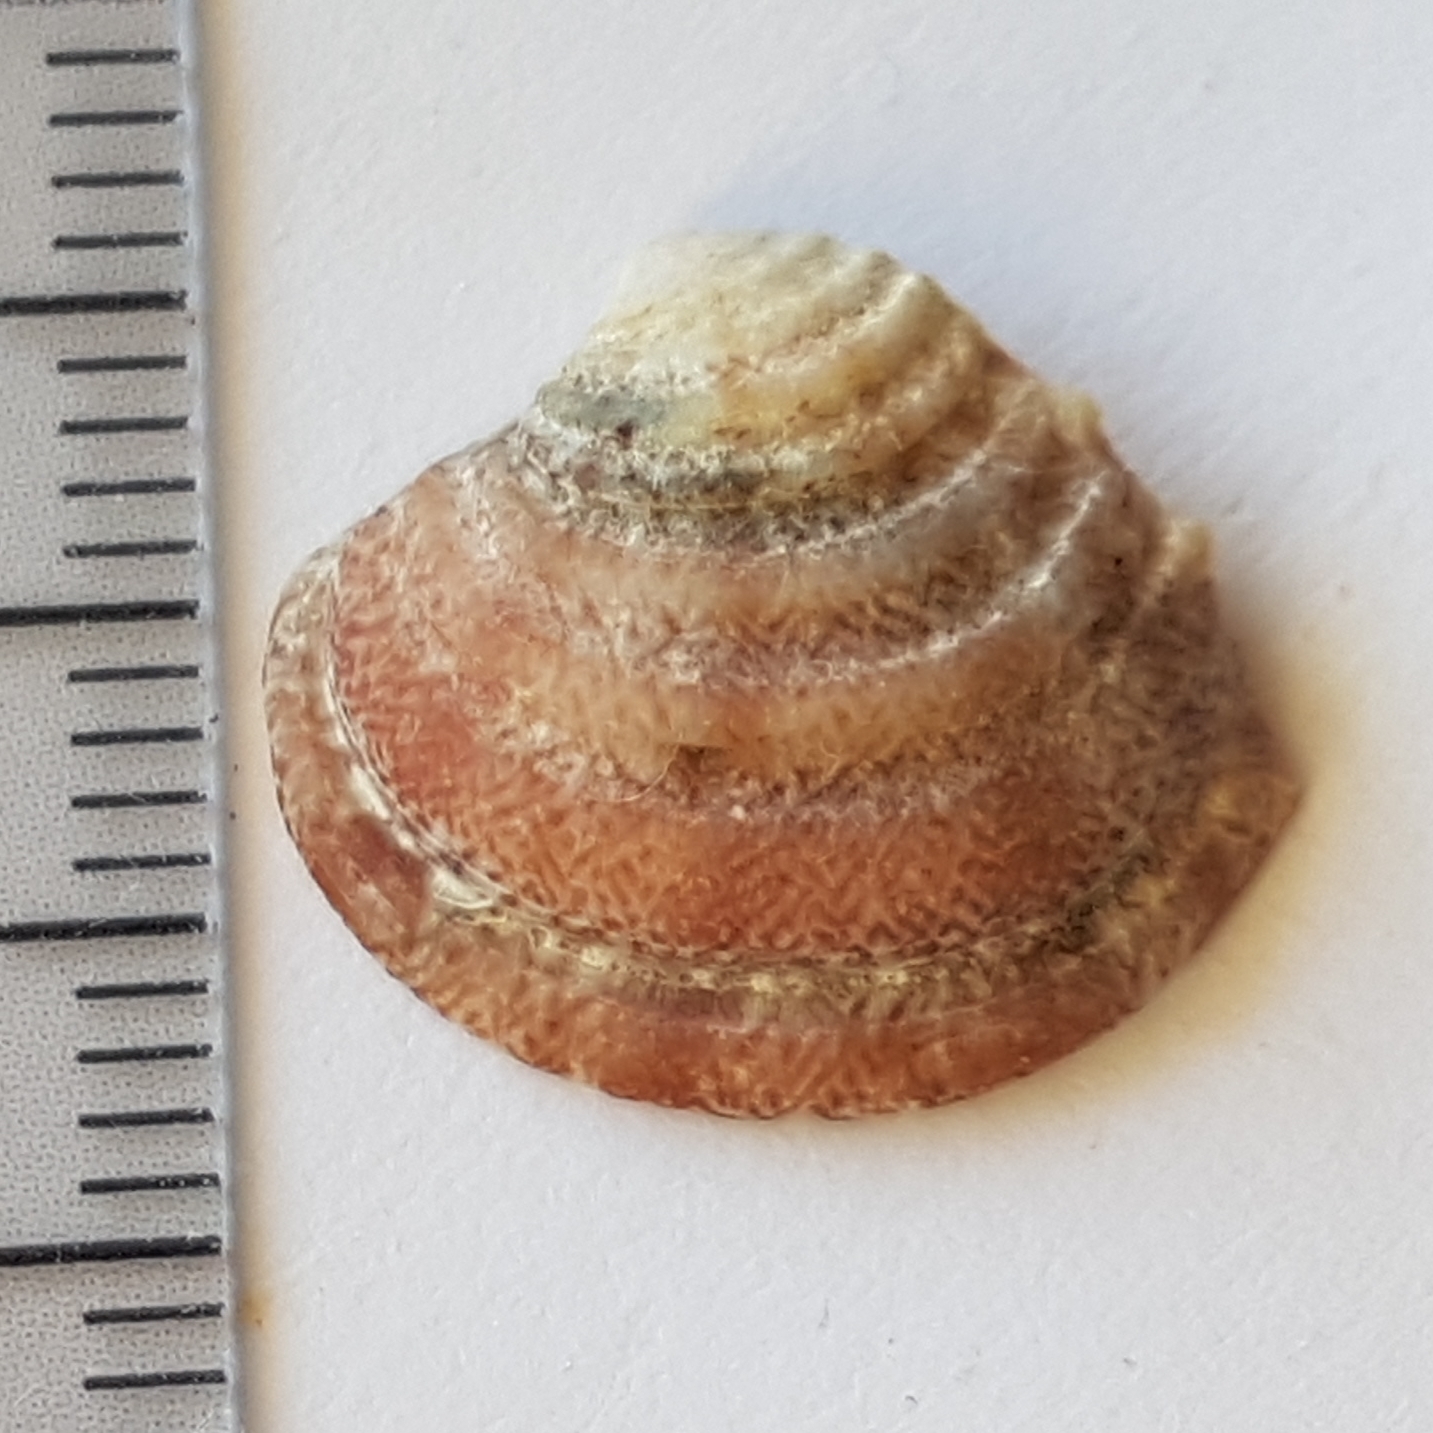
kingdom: Animalia
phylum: Mollusca
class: Bivalvia
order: Venerida
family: Veneridae
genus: Clausinella
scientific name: Clausinella fasciata
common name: Banded venus
